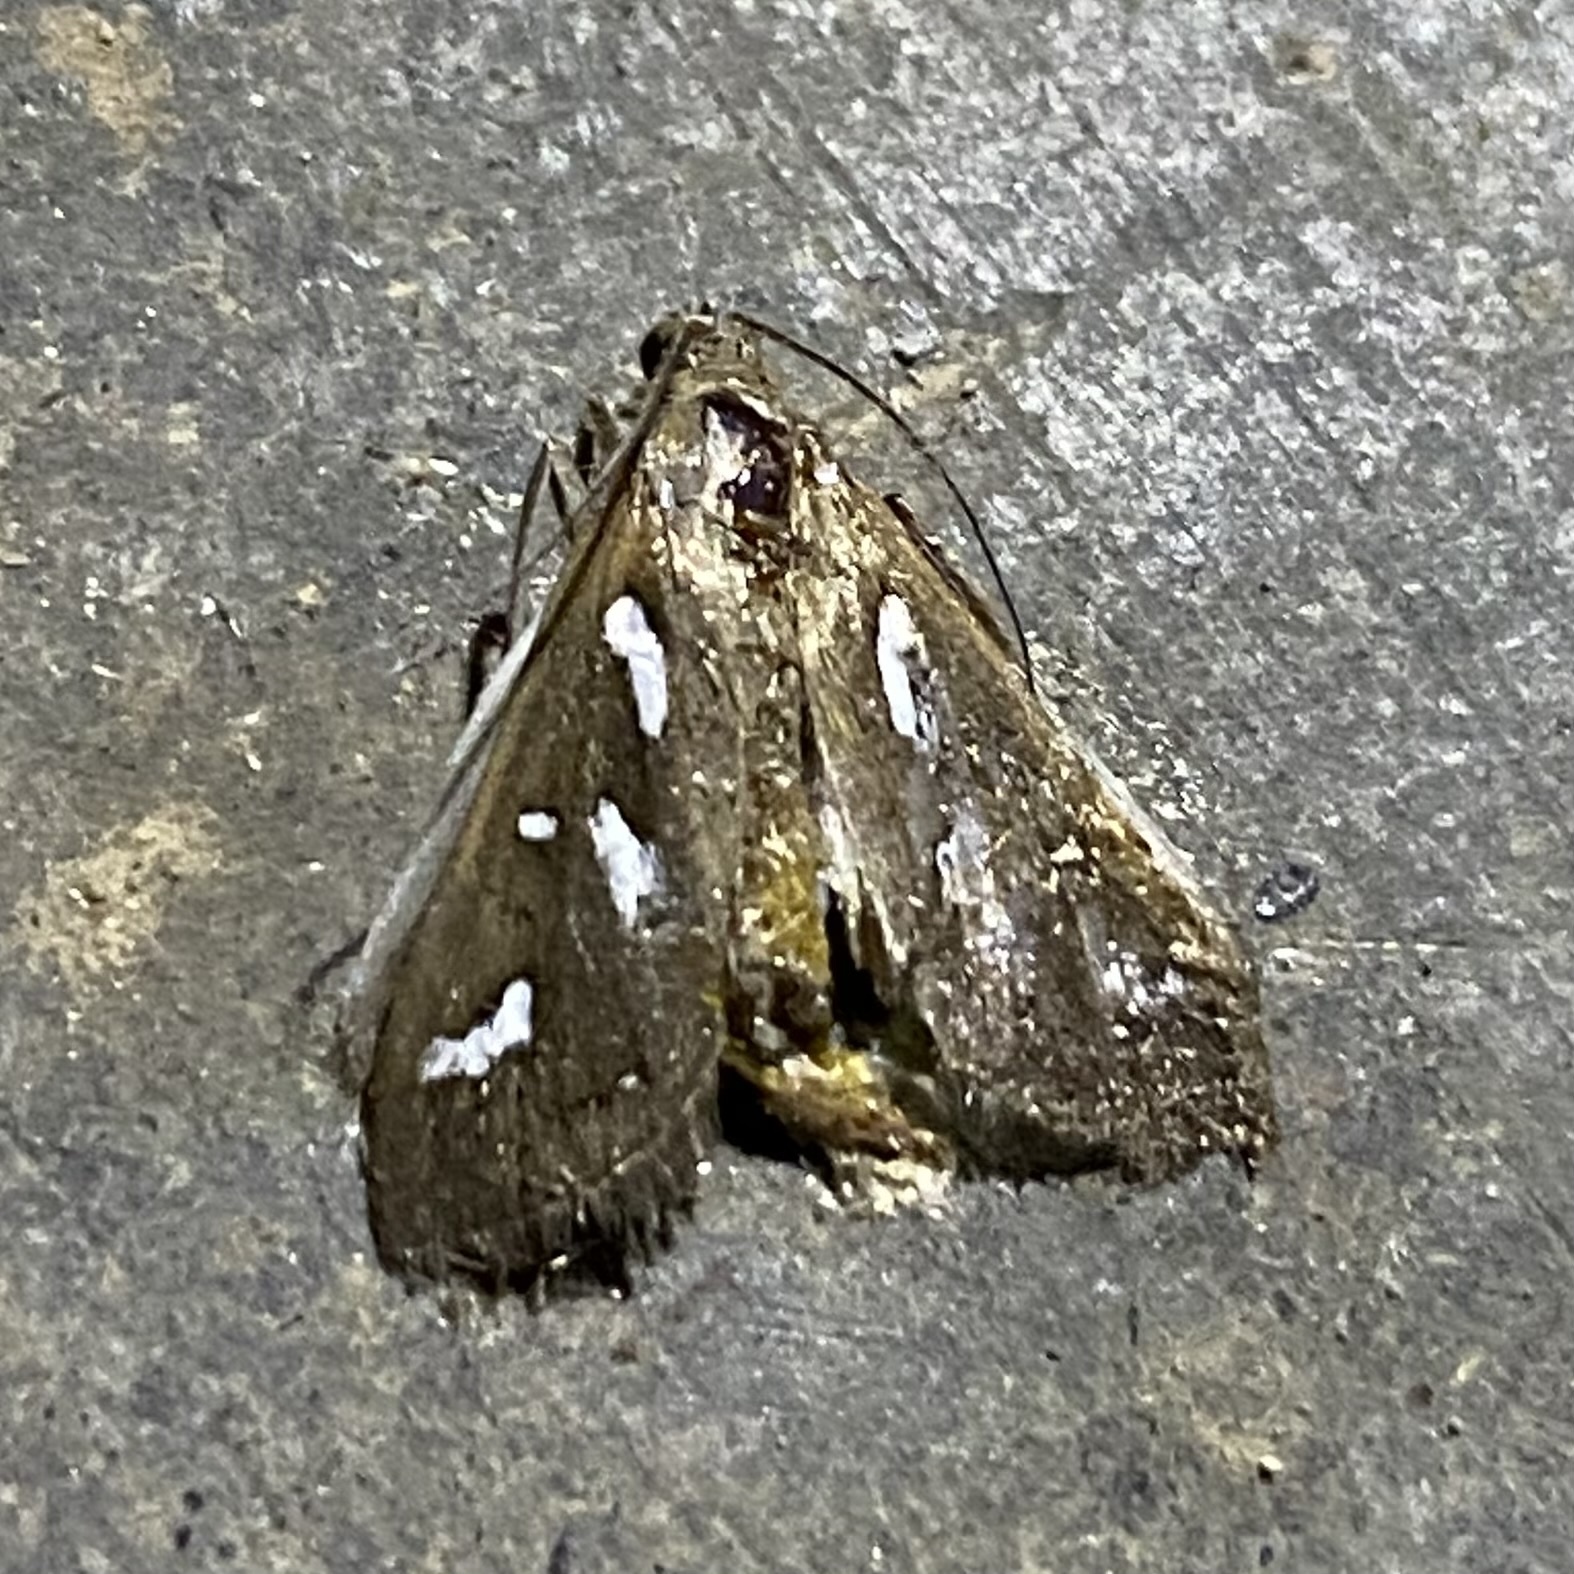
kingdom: Animalia
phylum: Arthropoda
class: Insecta
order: Lepidoptera
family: Crambidae
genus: Diastictis
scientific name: Diastictis fracturalis
